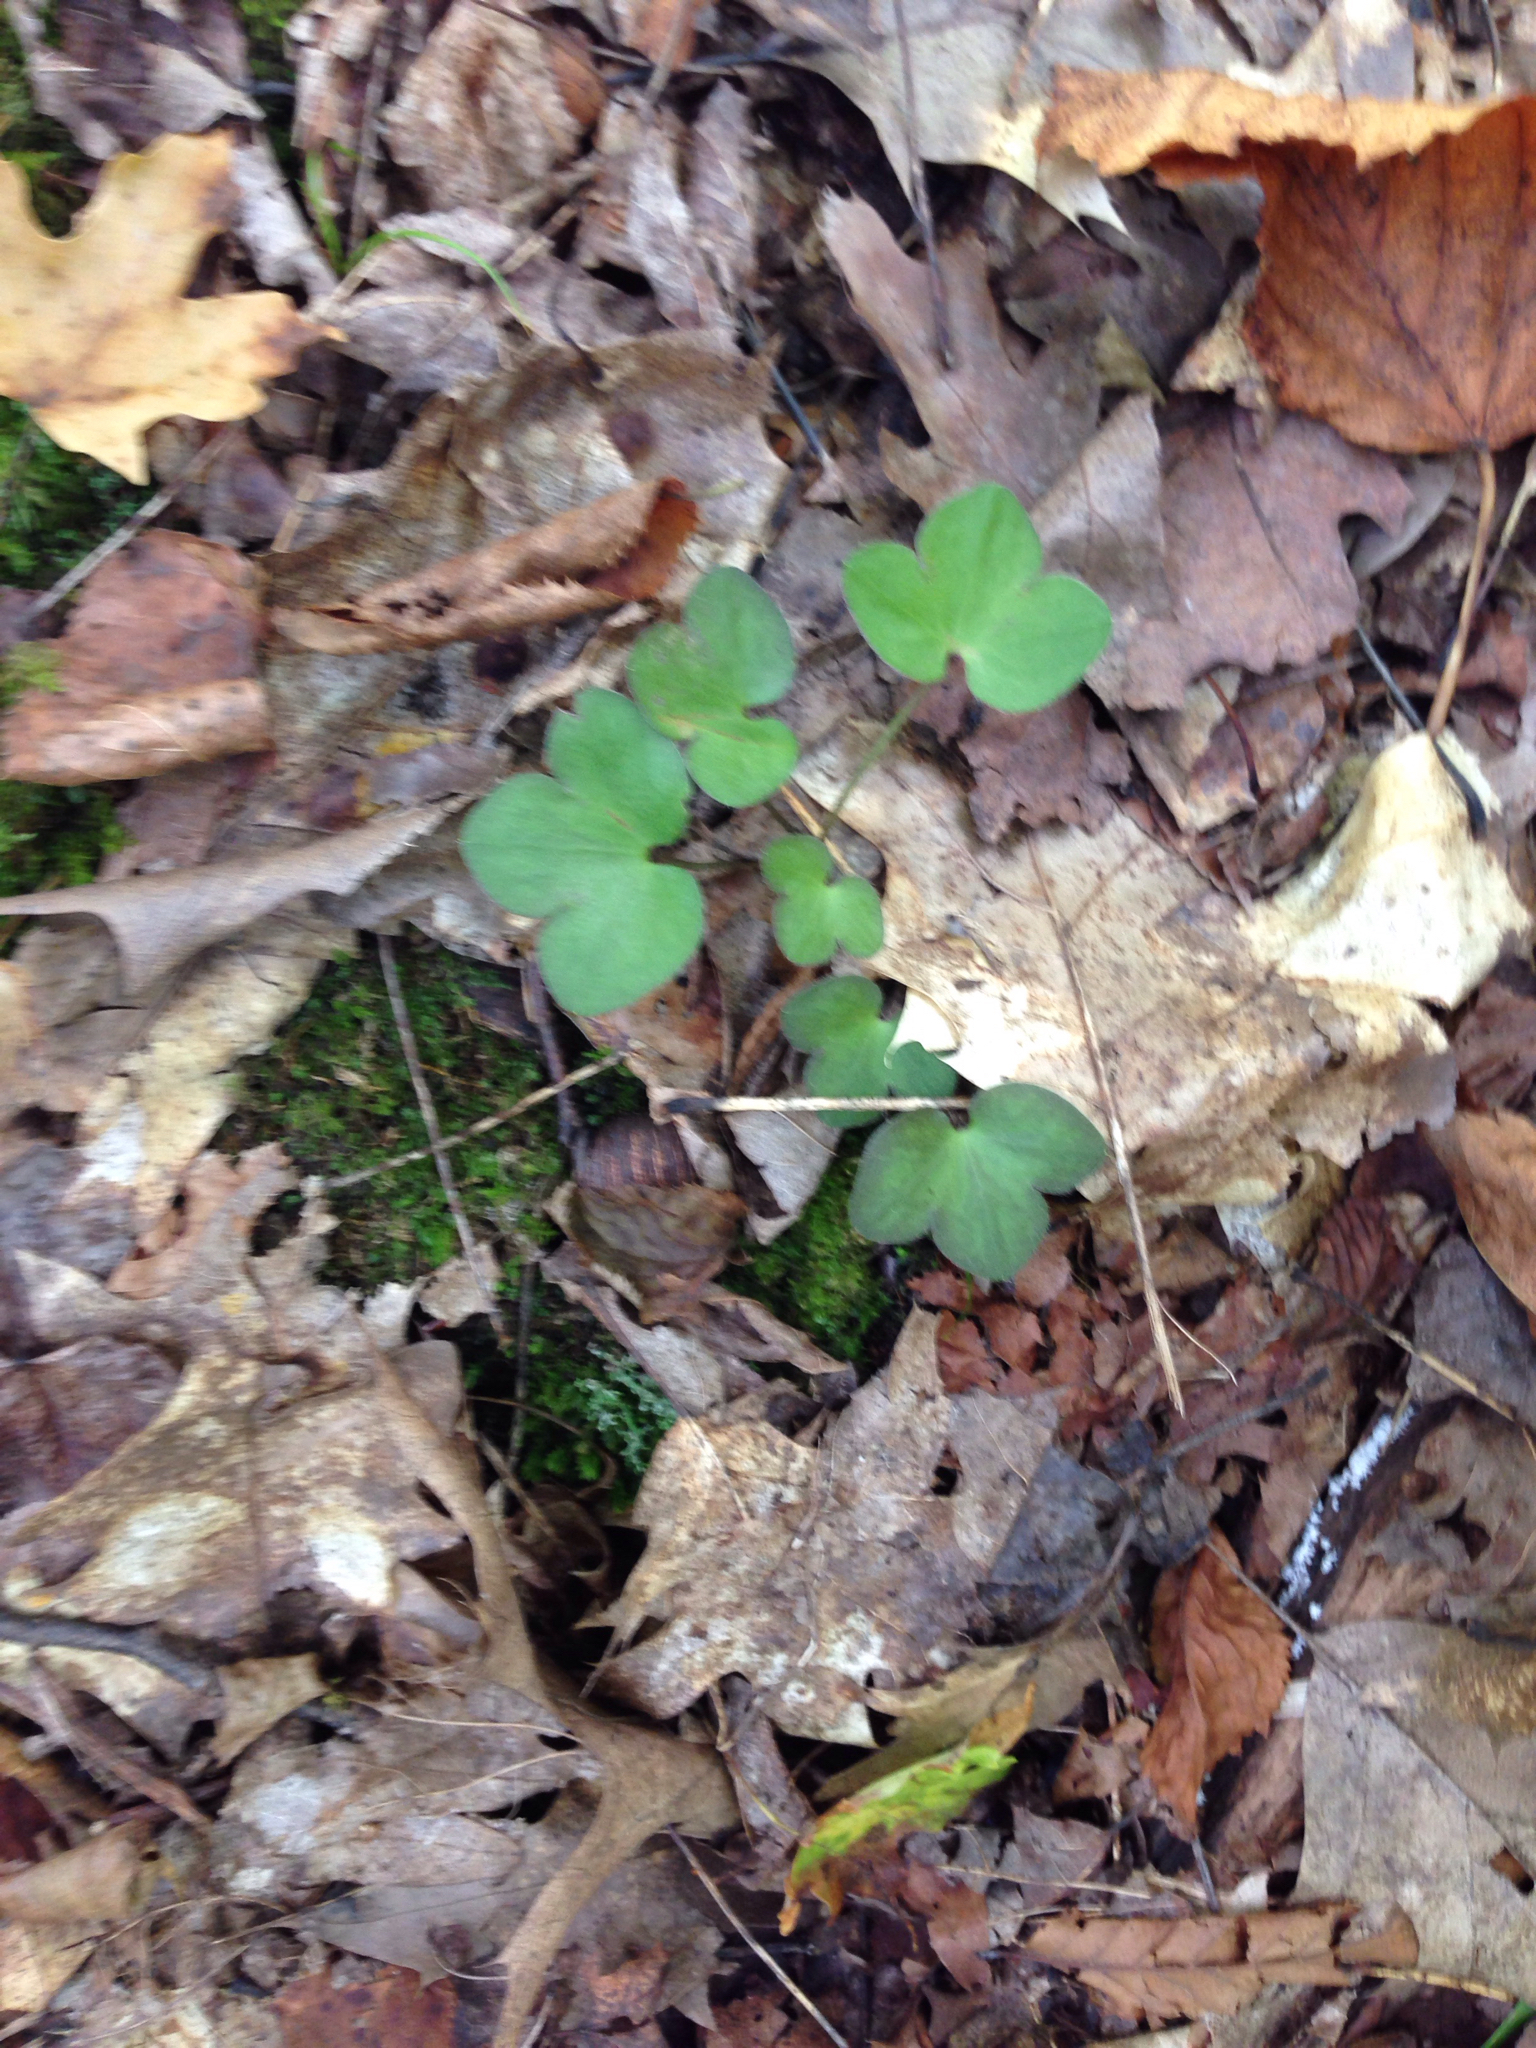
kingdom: Plantae
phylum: Tracheophyta
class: Magnoliopsida
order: Ranunculales
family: Ranunculaceae
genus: Hepatica
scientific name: Hepatica americana
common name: American hepatica
